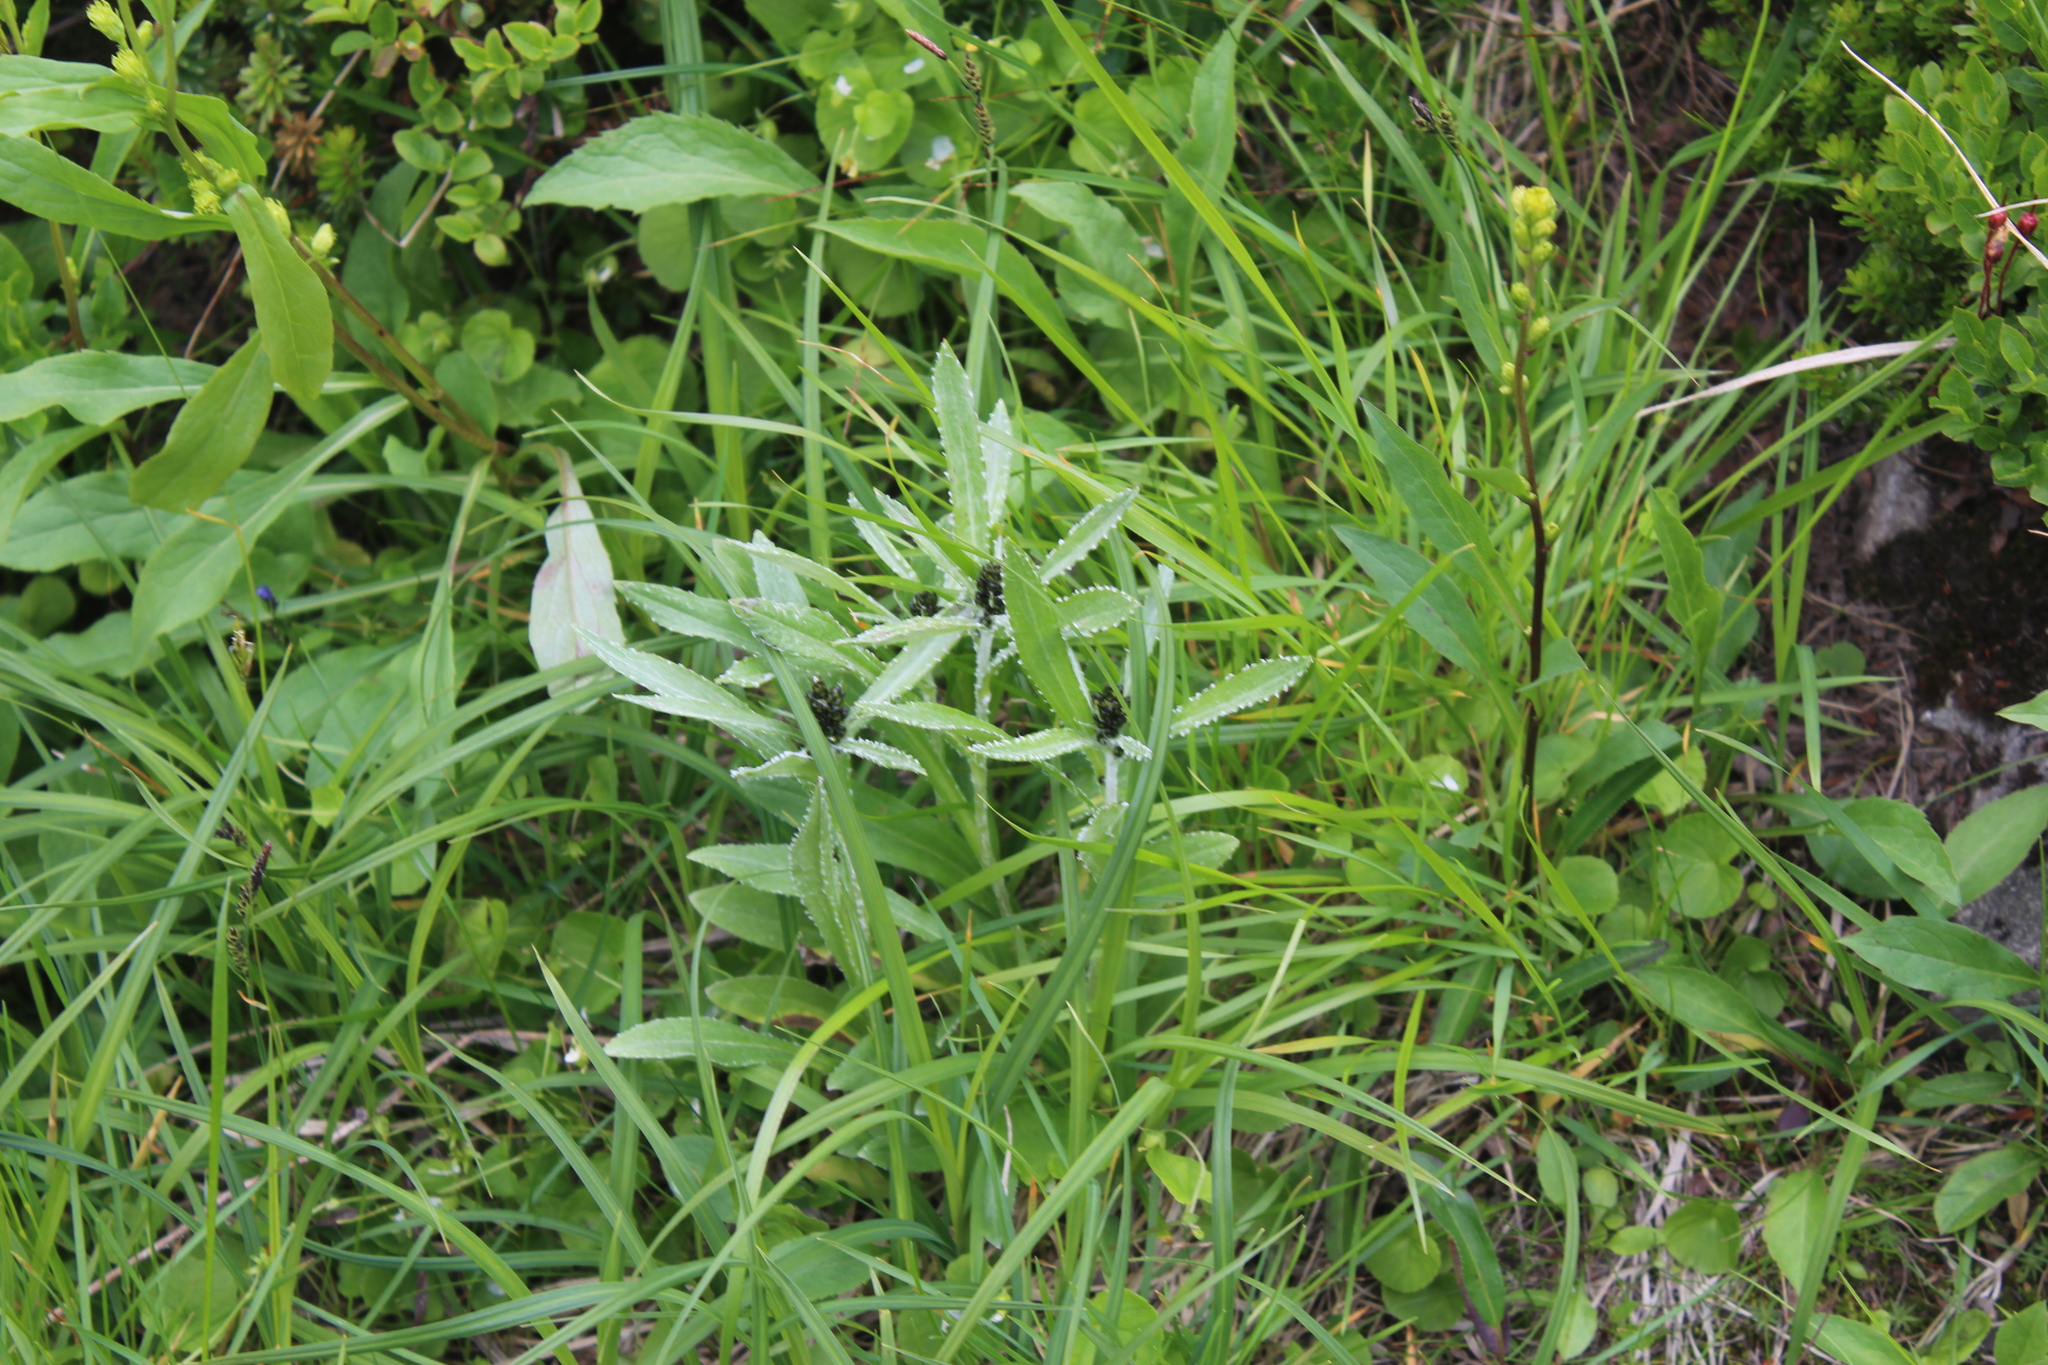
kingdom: Plantae
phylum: Tracheophyta
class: Magnoliopsida
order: Asterales
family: Asteraceae
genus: Omalotheca
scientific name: Omalotheca norvegica
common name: Norwegian arctic-cudweed
